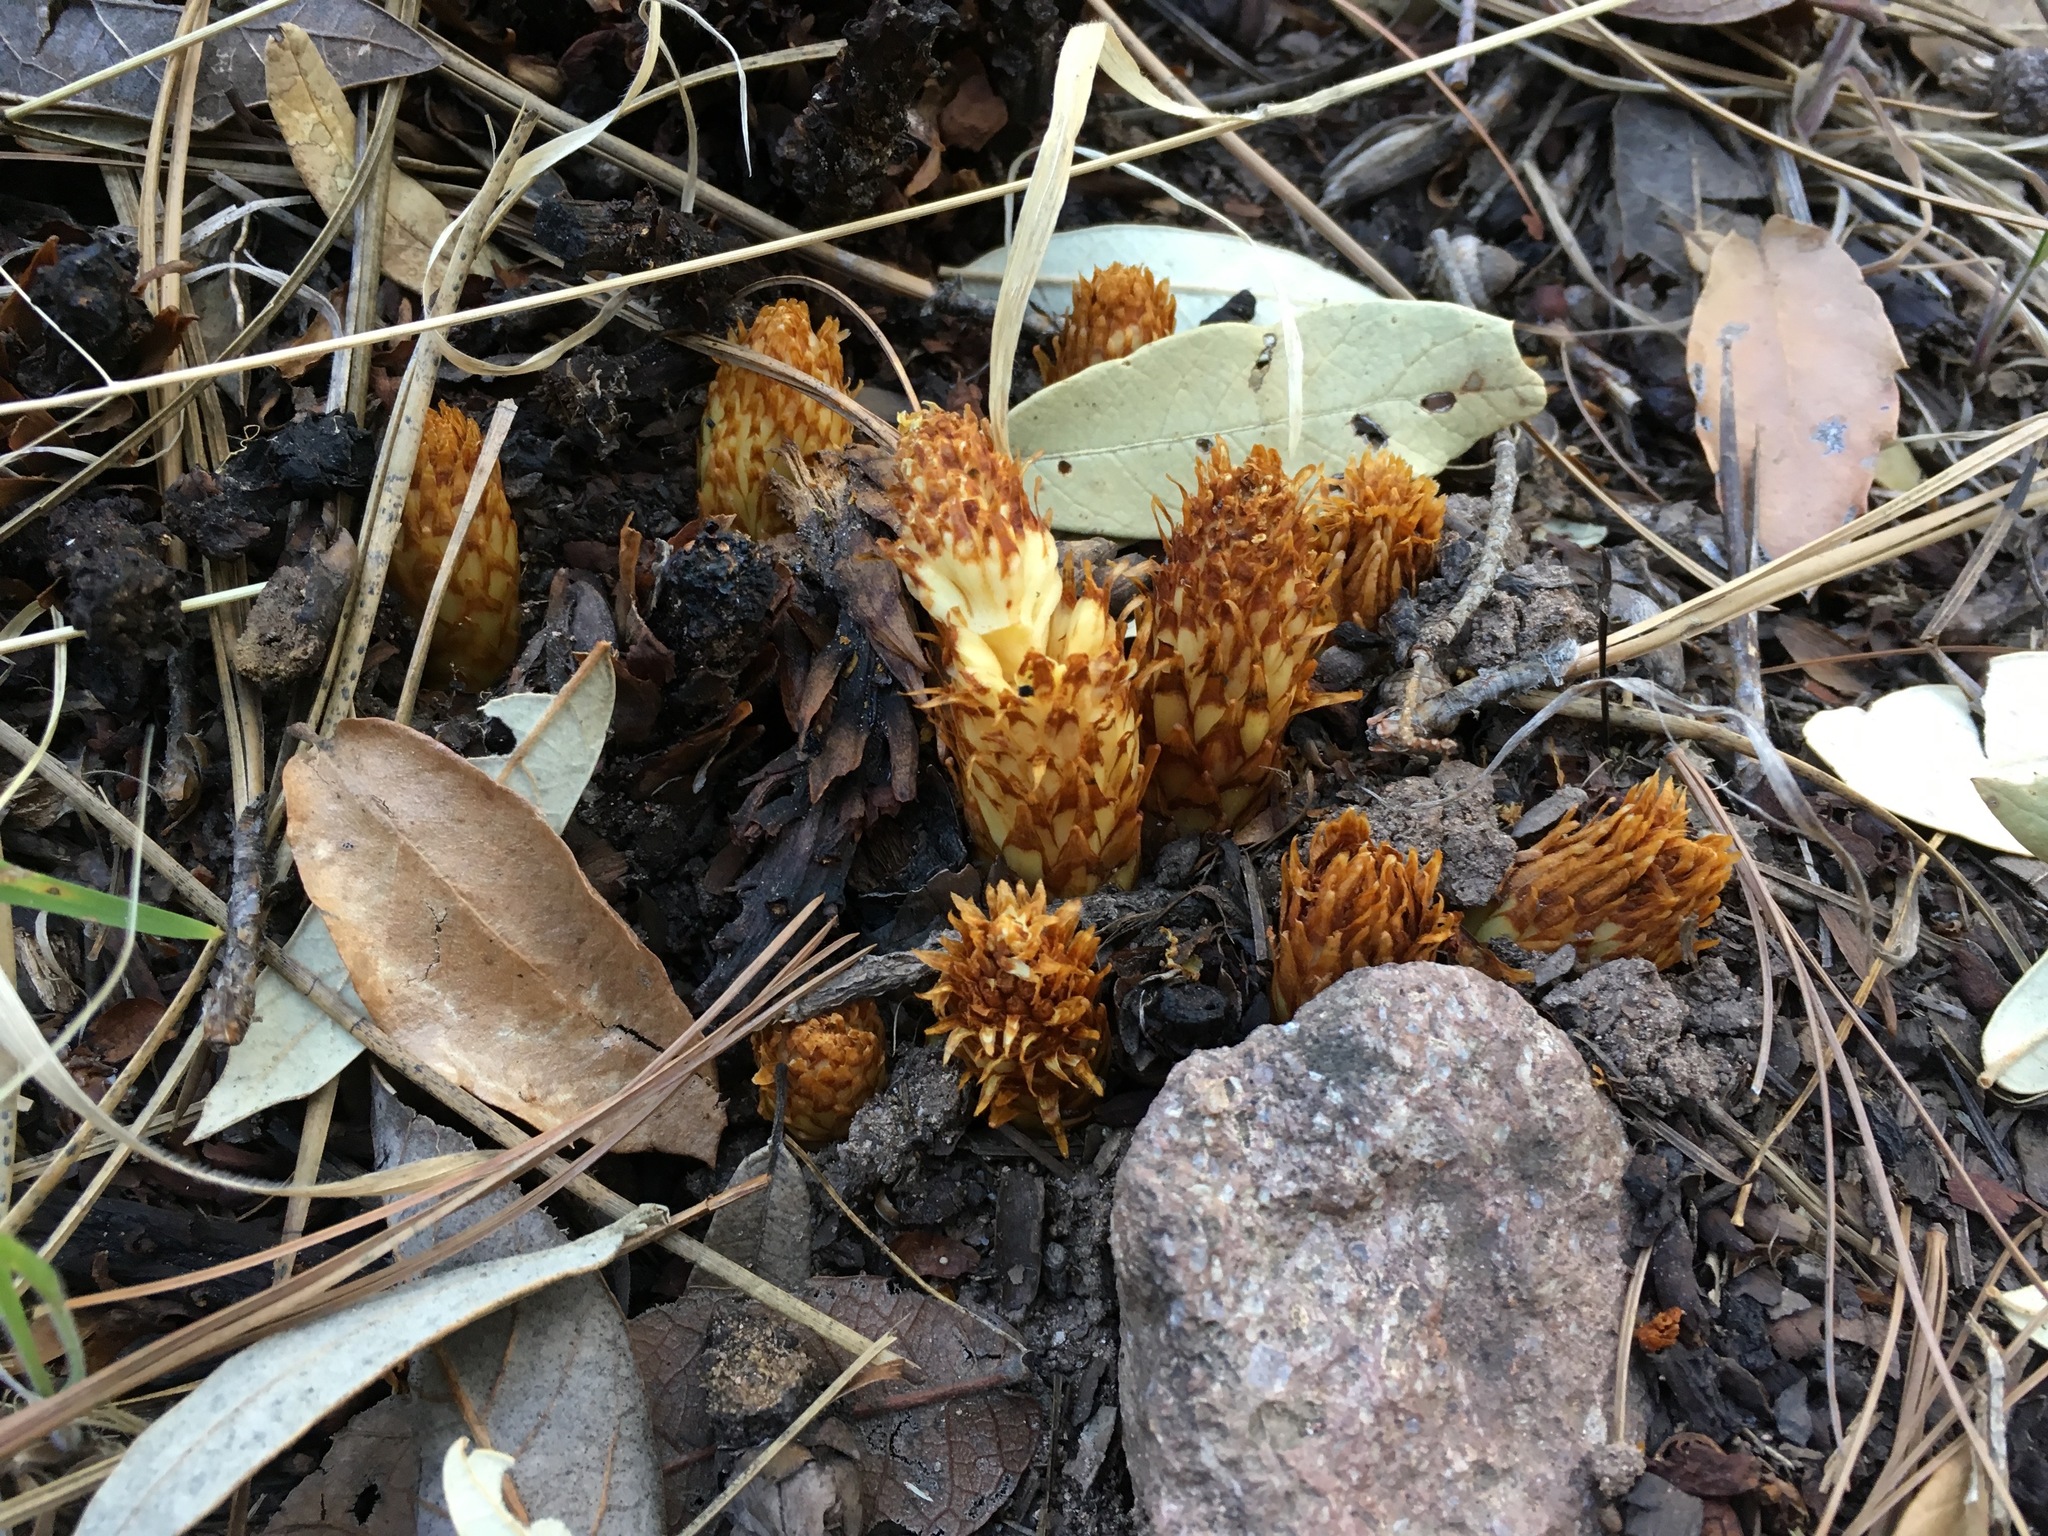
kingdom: Plantae
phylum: Tracheophyta
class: Magnoliopsida
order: Lamiales
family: Orobanchaceae
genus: Conopholis
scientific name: Conopholis alpina
